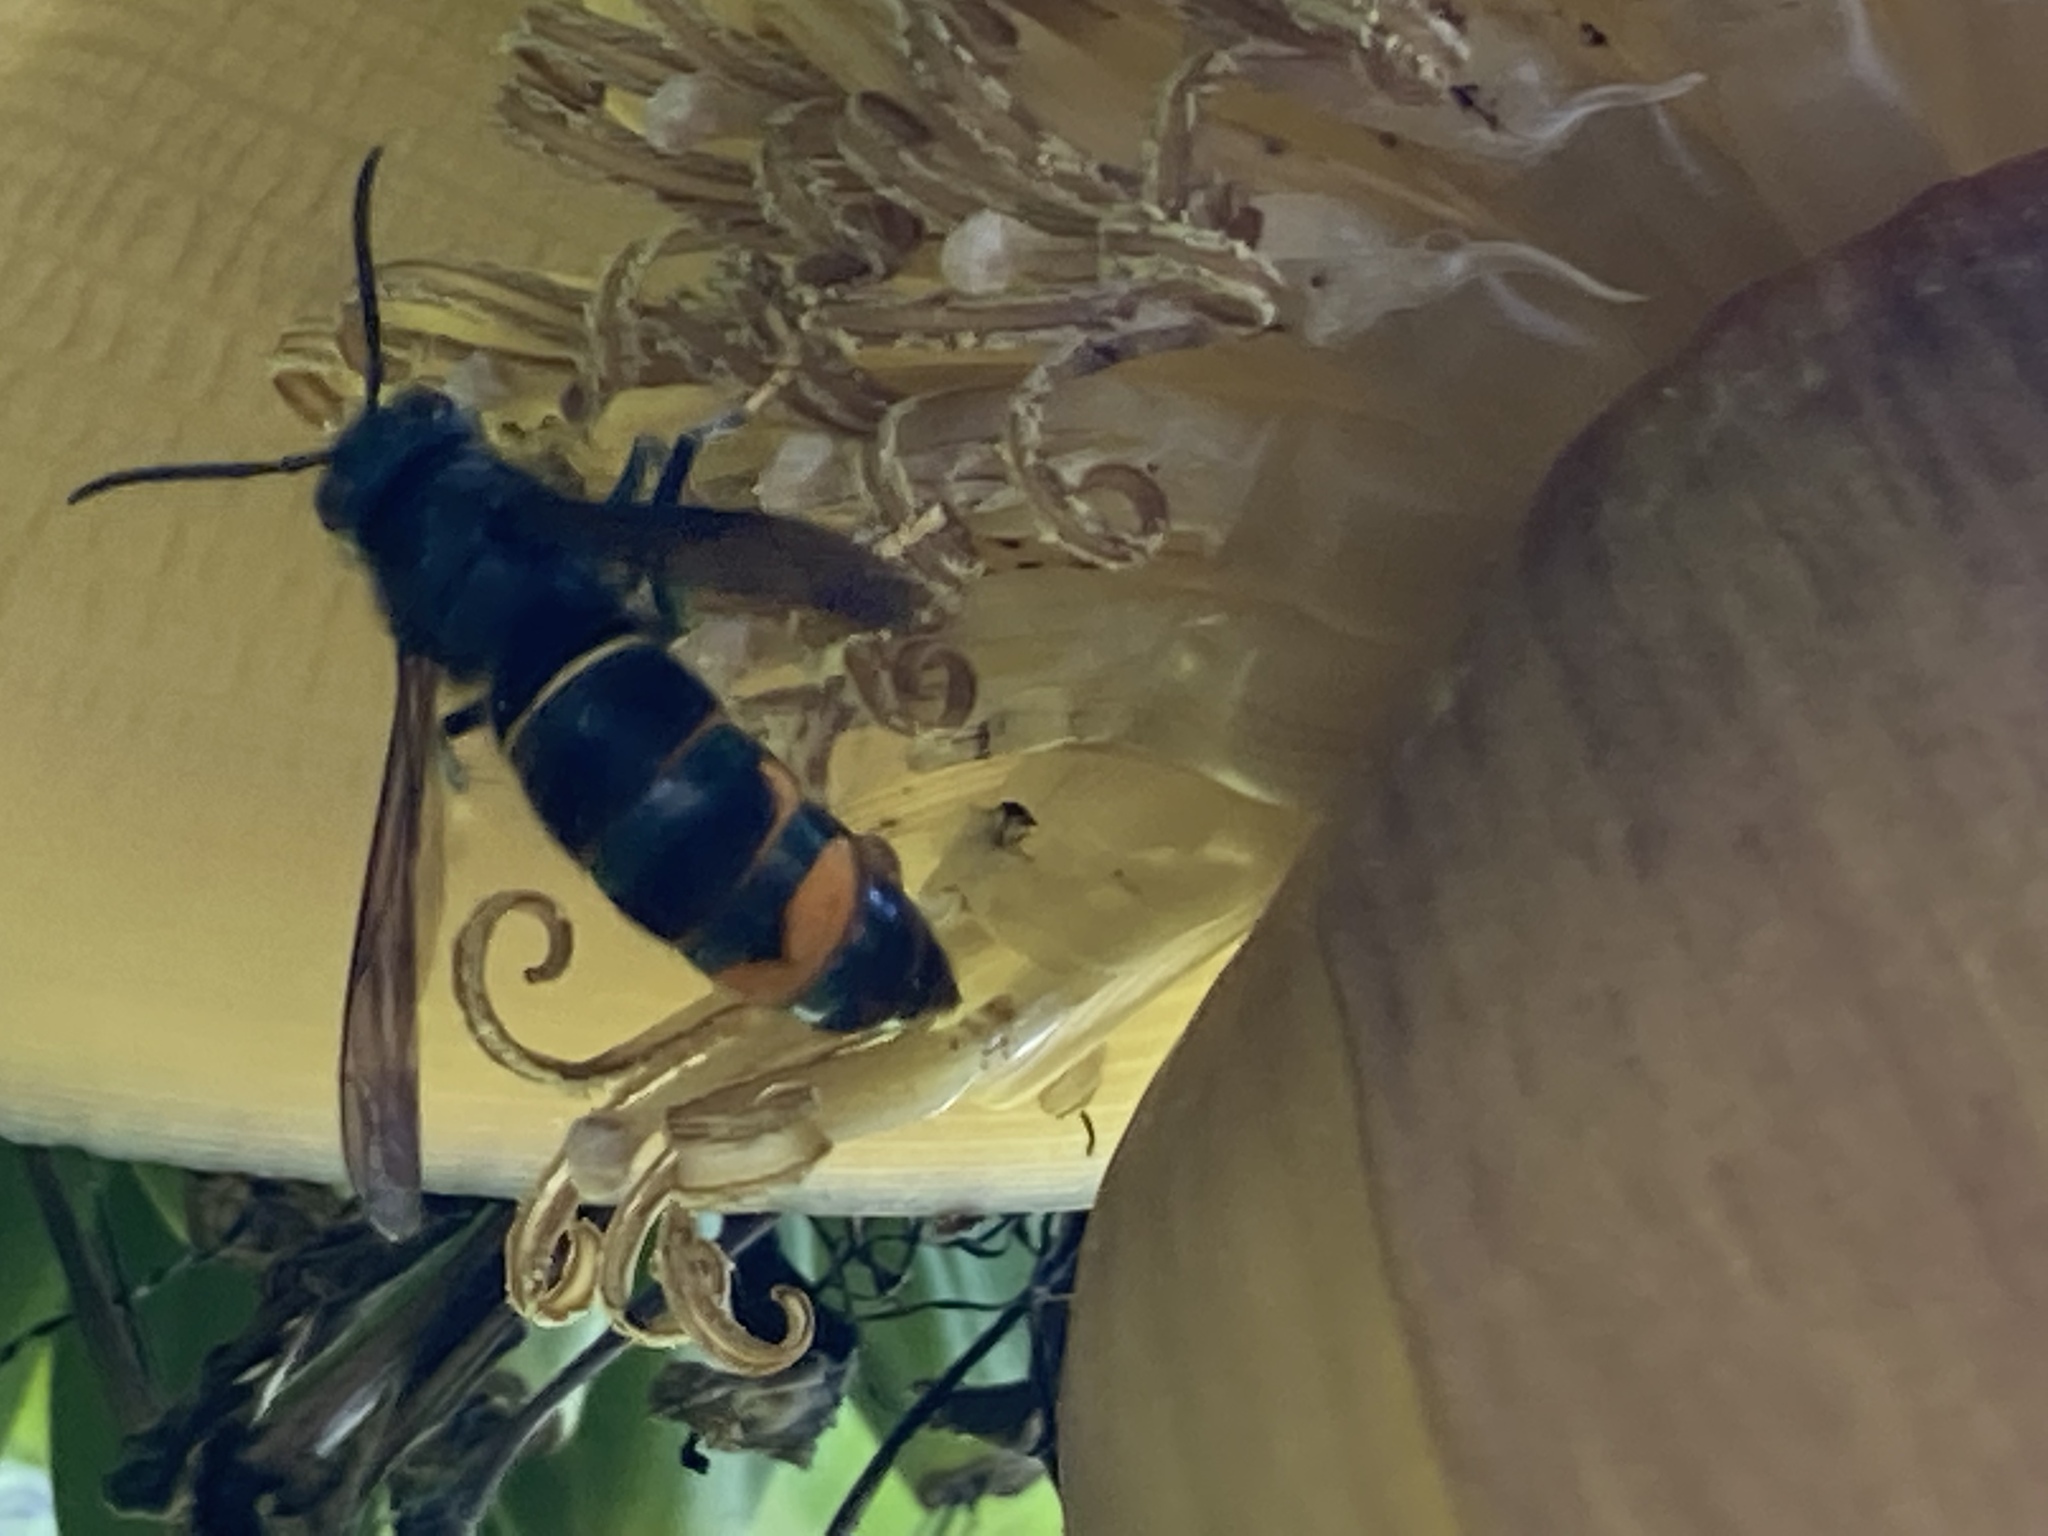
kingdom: Animalia
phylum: Arthropoda
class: Insecta
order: Hymenoptera
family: Vespidae
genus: Vespa
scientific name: Vespa velutina
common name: Asian hornet
